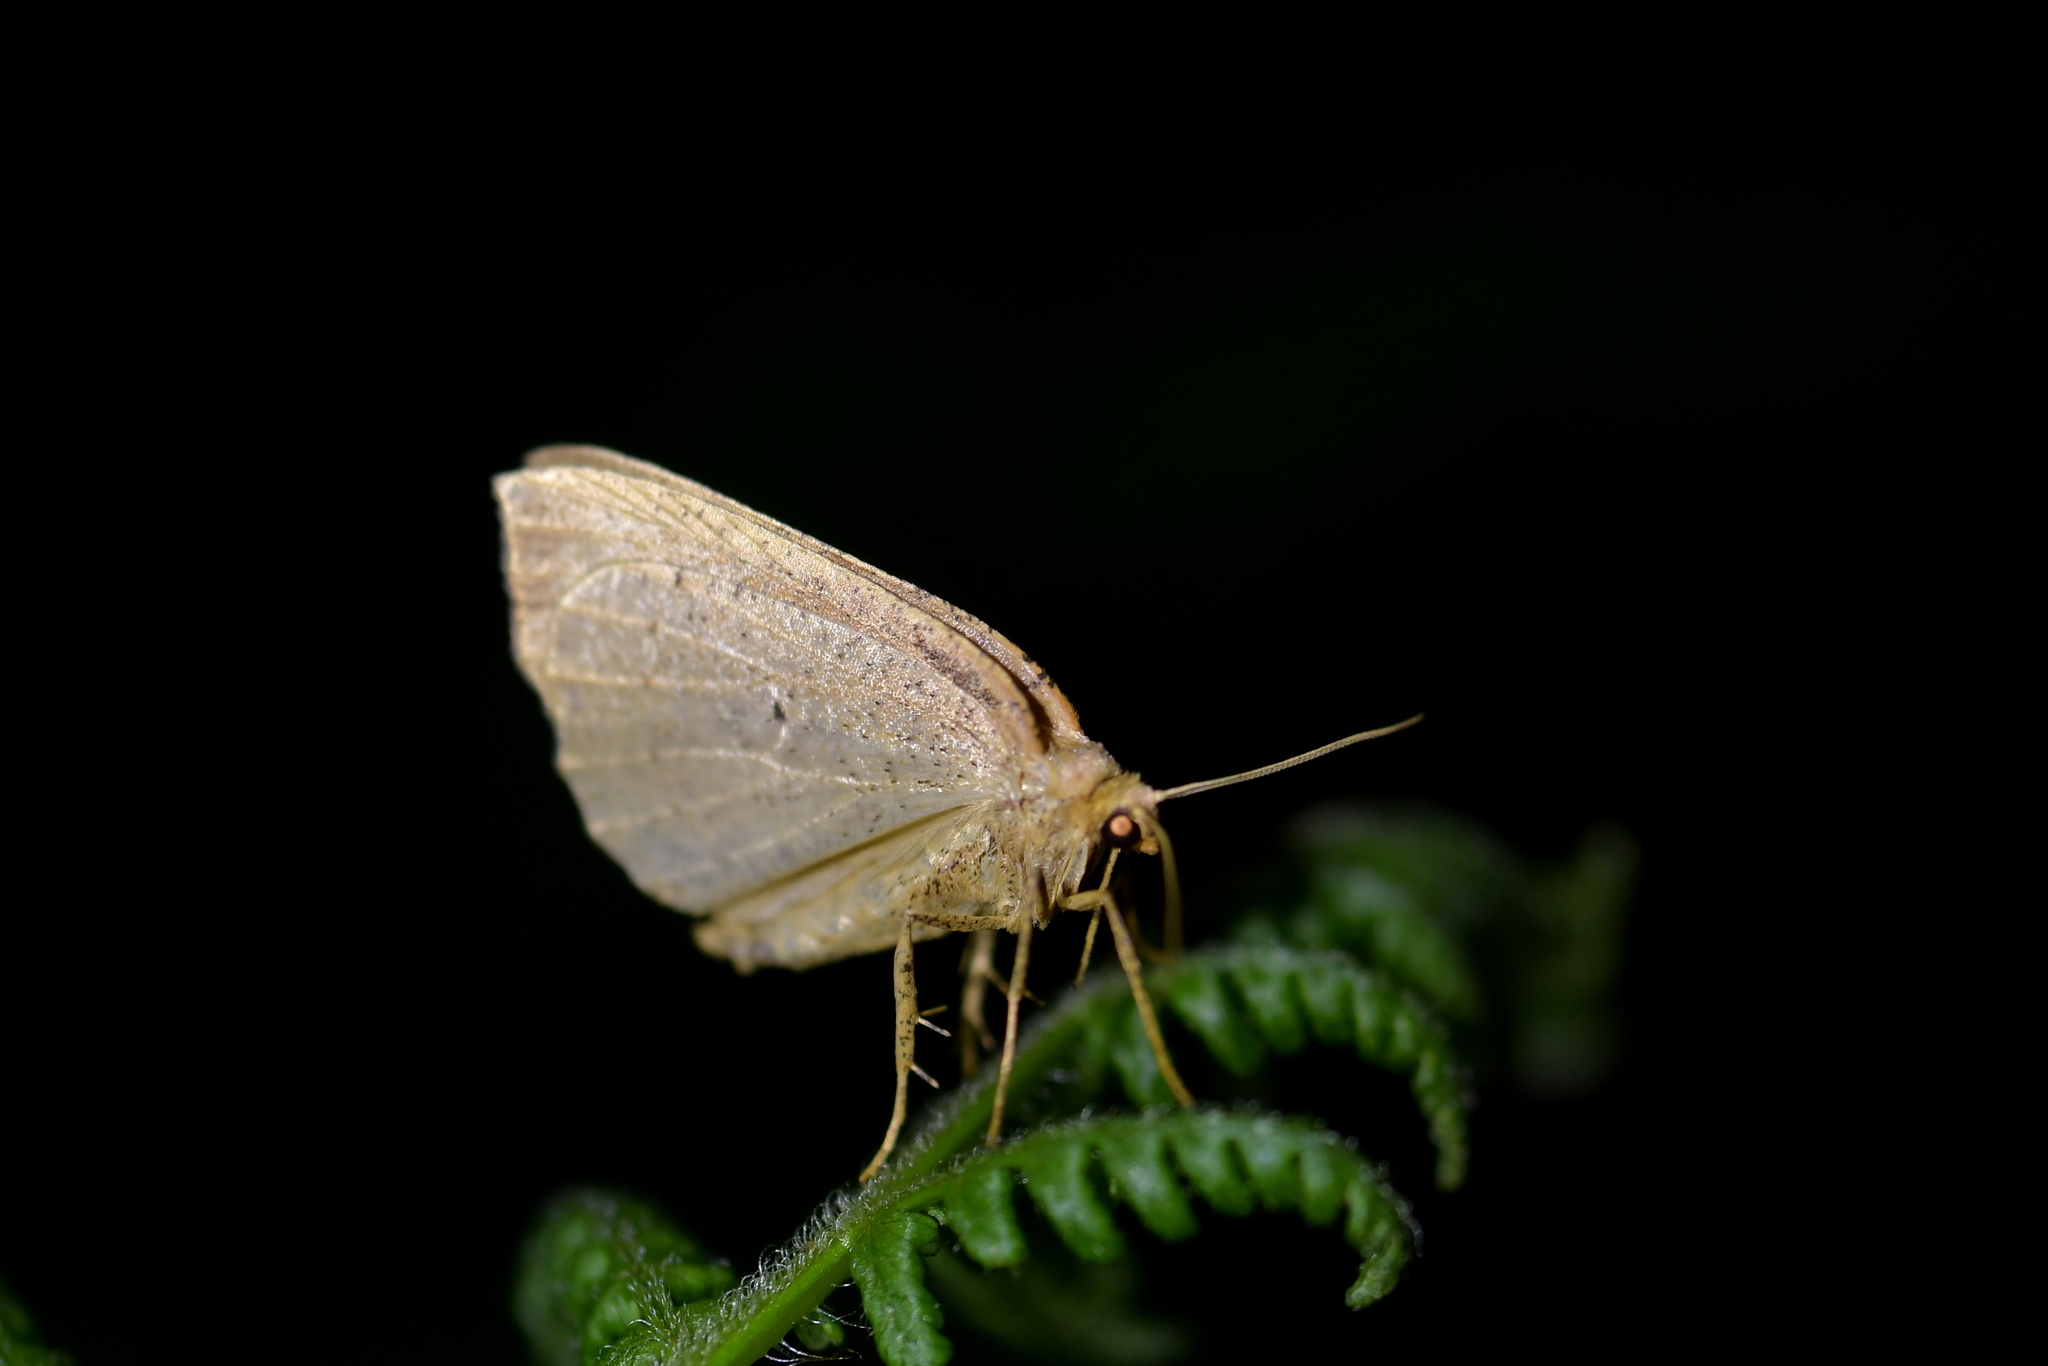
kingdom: Animalia
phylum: Arthropoda
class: Insecta
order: Lepidoptera
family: Geometridae
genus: Sestra
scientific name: Sestra humeraria
